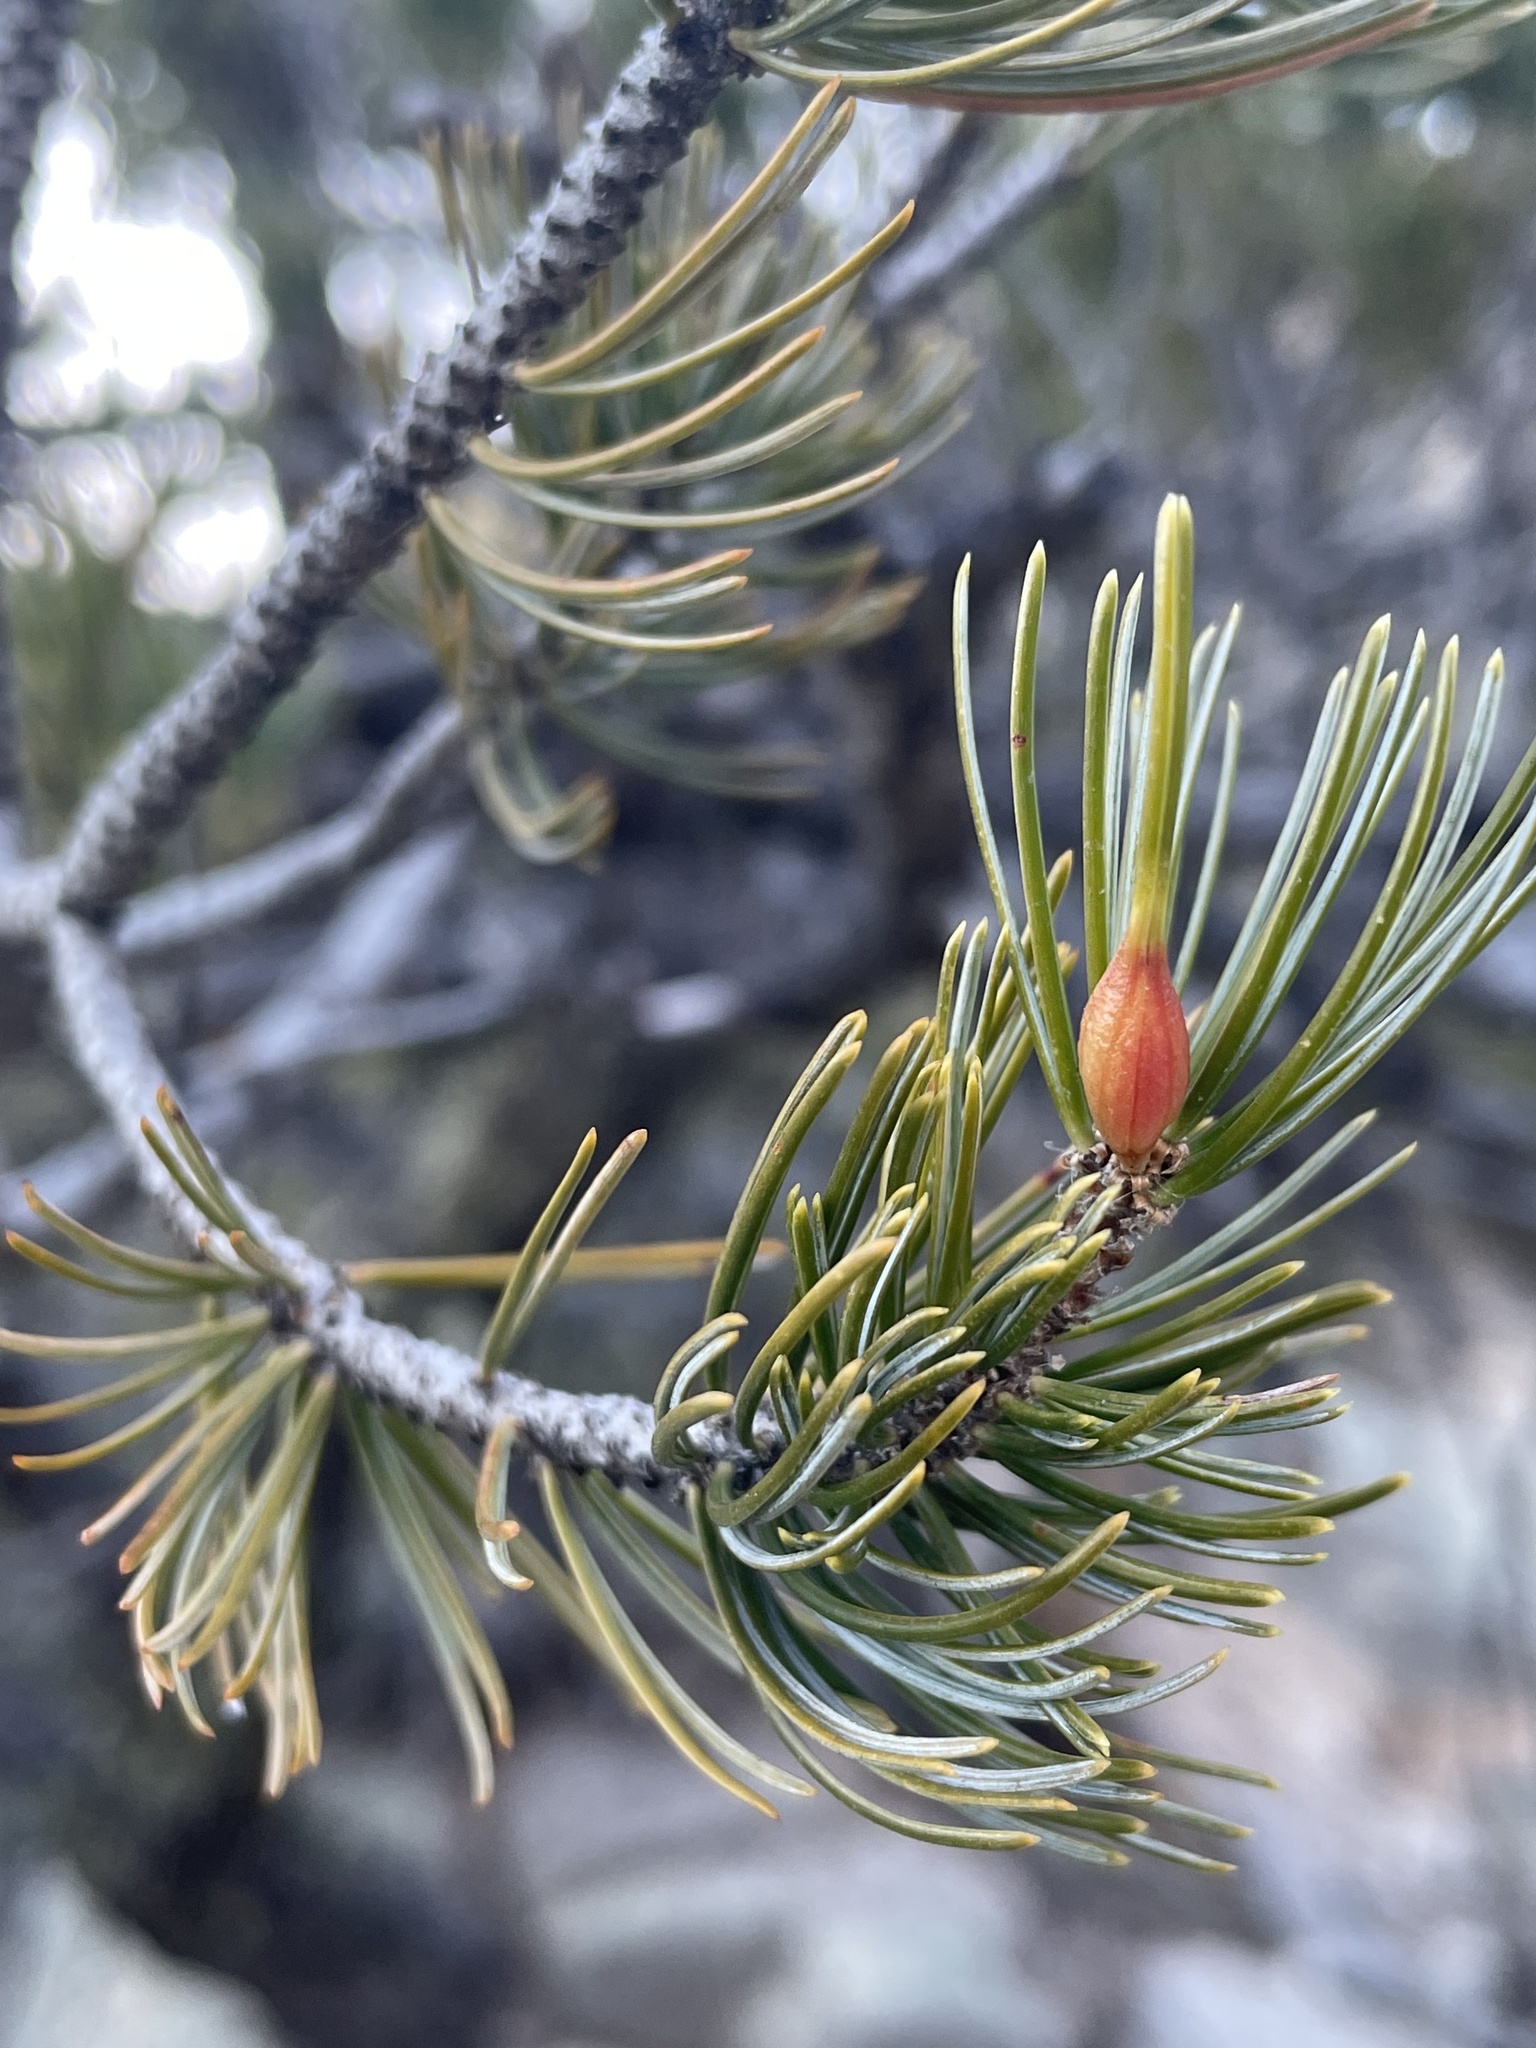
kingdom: Plantae
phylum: Tracheophyta
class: Pinopsida
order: Pinales
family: Pinaceae
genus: Pinus
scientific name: Pinus discolor
